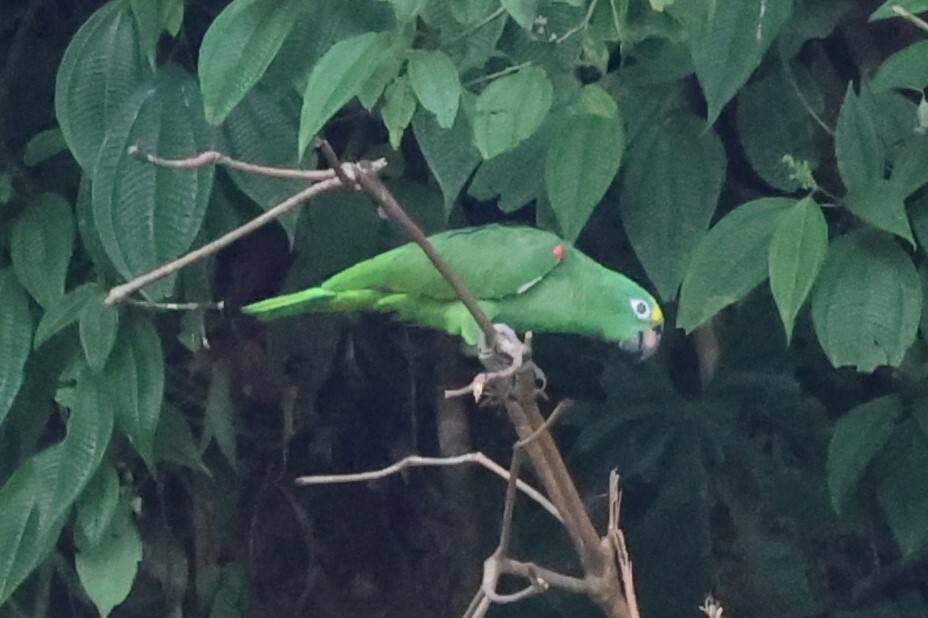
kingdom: Animalia
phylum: Chordata
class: Aves
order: Psittaciformes
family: Psittacidae
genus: Amazona
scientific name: Amazona ochrocephala
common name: Yellow-crowned amazon
